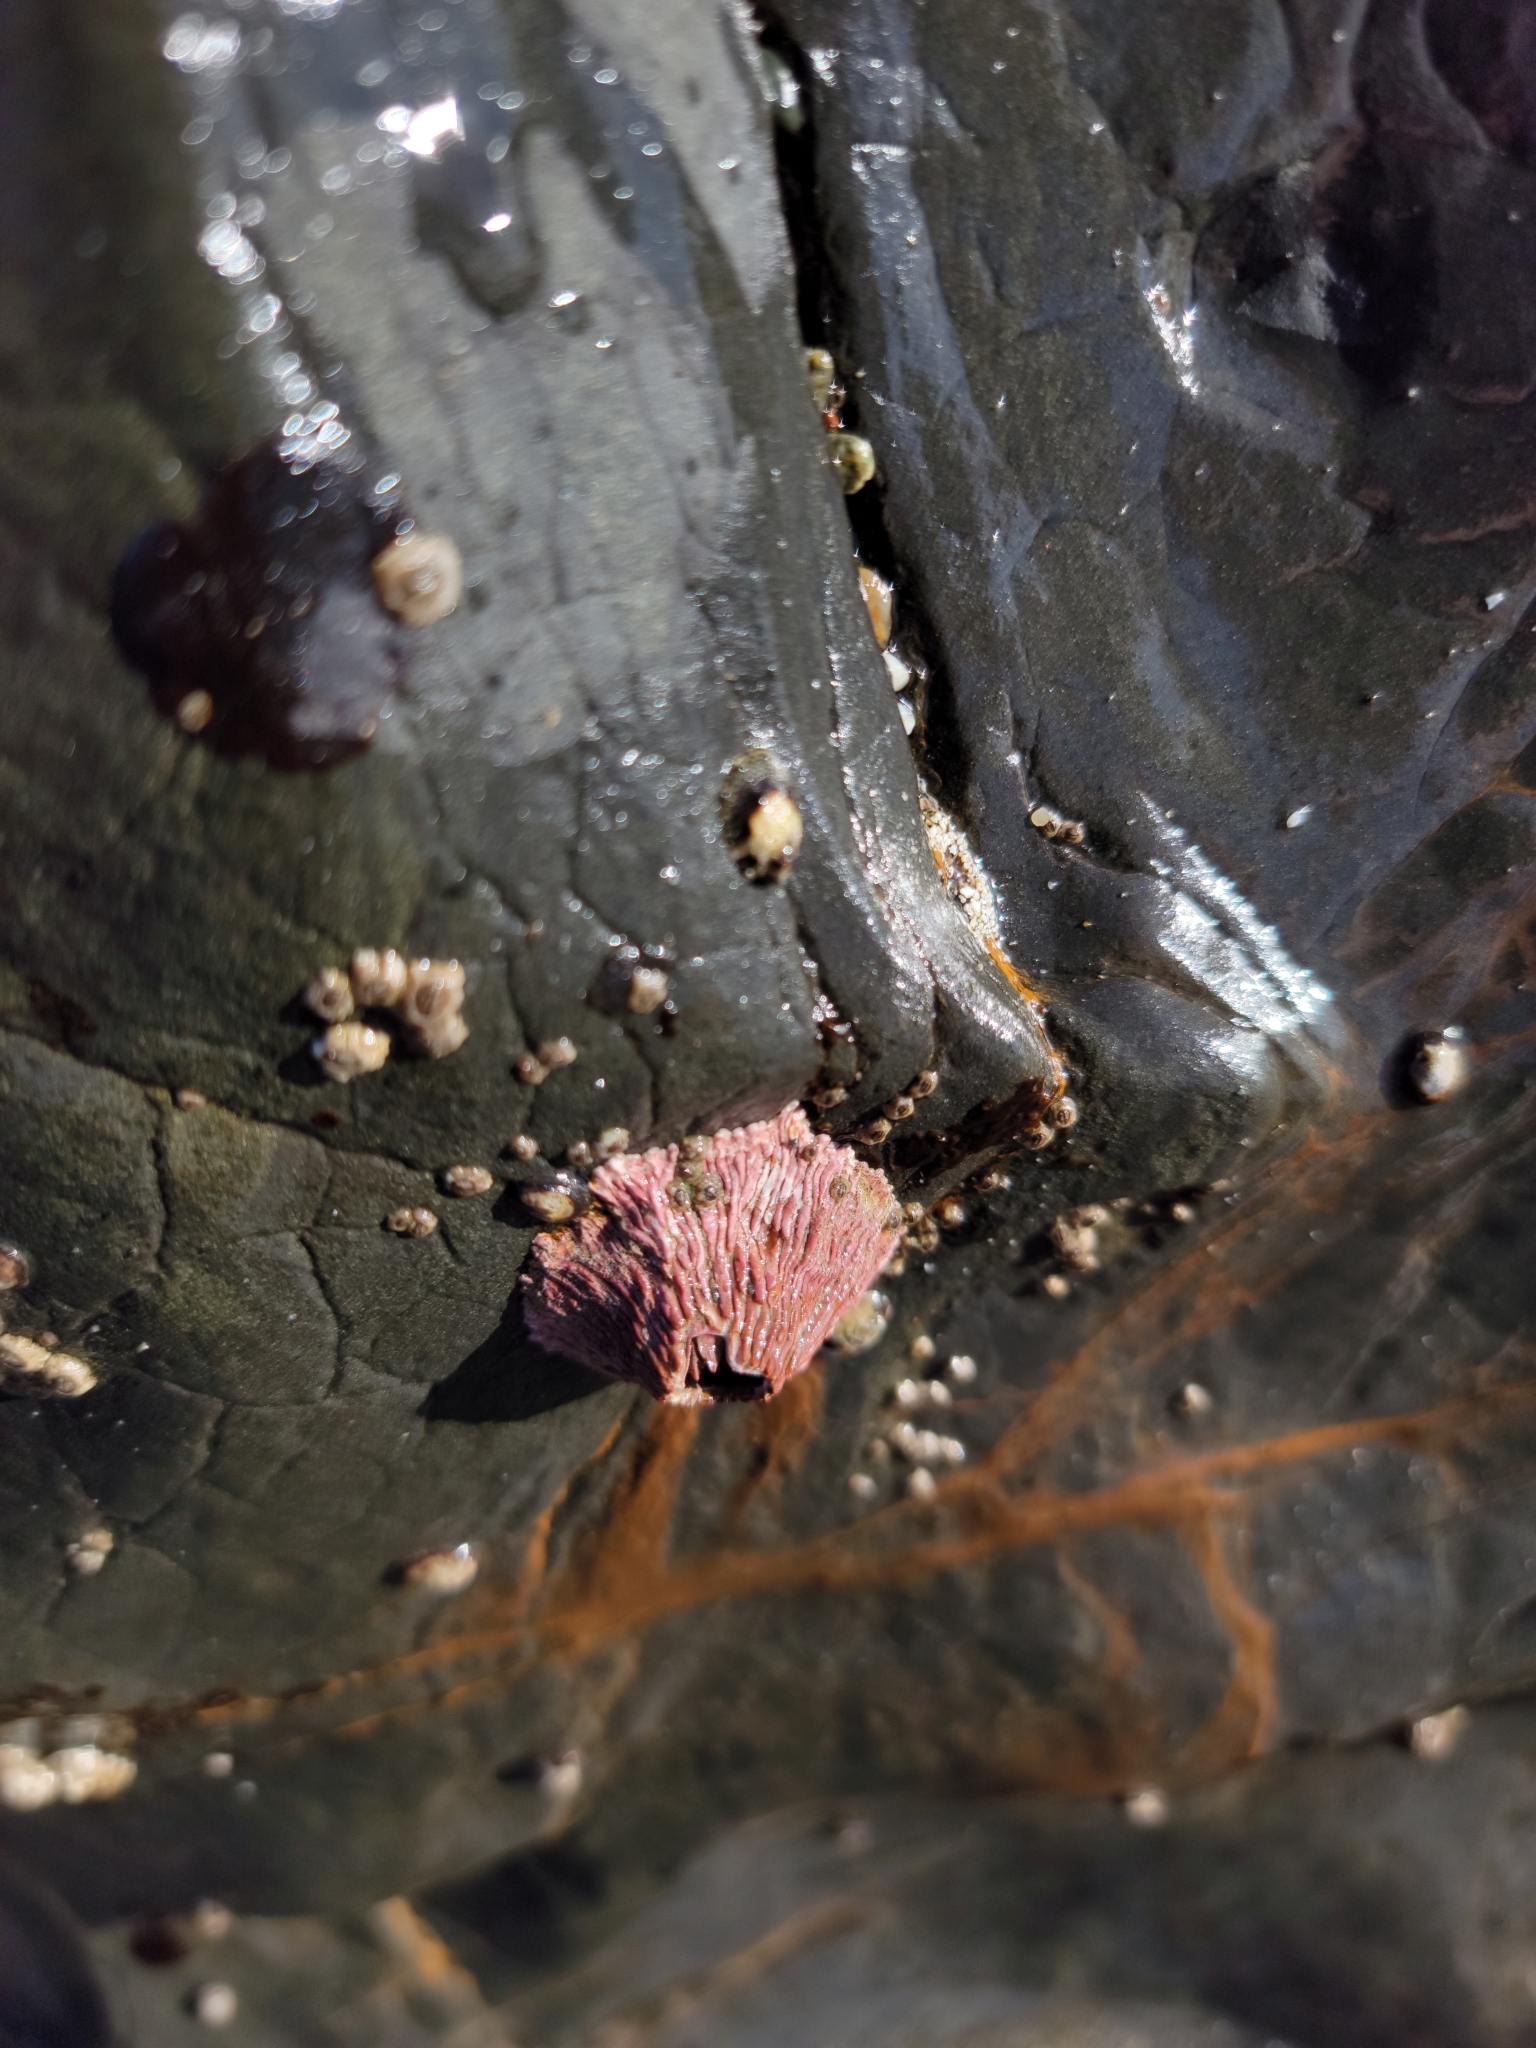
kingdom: Animalia
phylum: Arthropoda
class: Maxillopoda
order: Sessilia
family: Tetraclitidae
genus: Tetraclita
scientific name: Tetraclita rubescens
